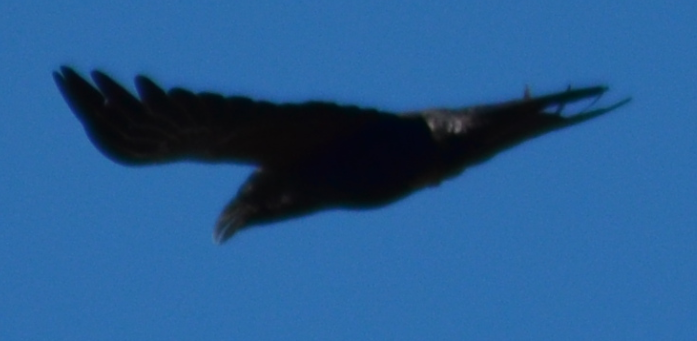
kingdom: Animalia
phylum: Chordata
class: Aves
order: Passeriformes
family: Corvidae
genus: Corvus
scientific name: Corvus corax
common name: Common raven
